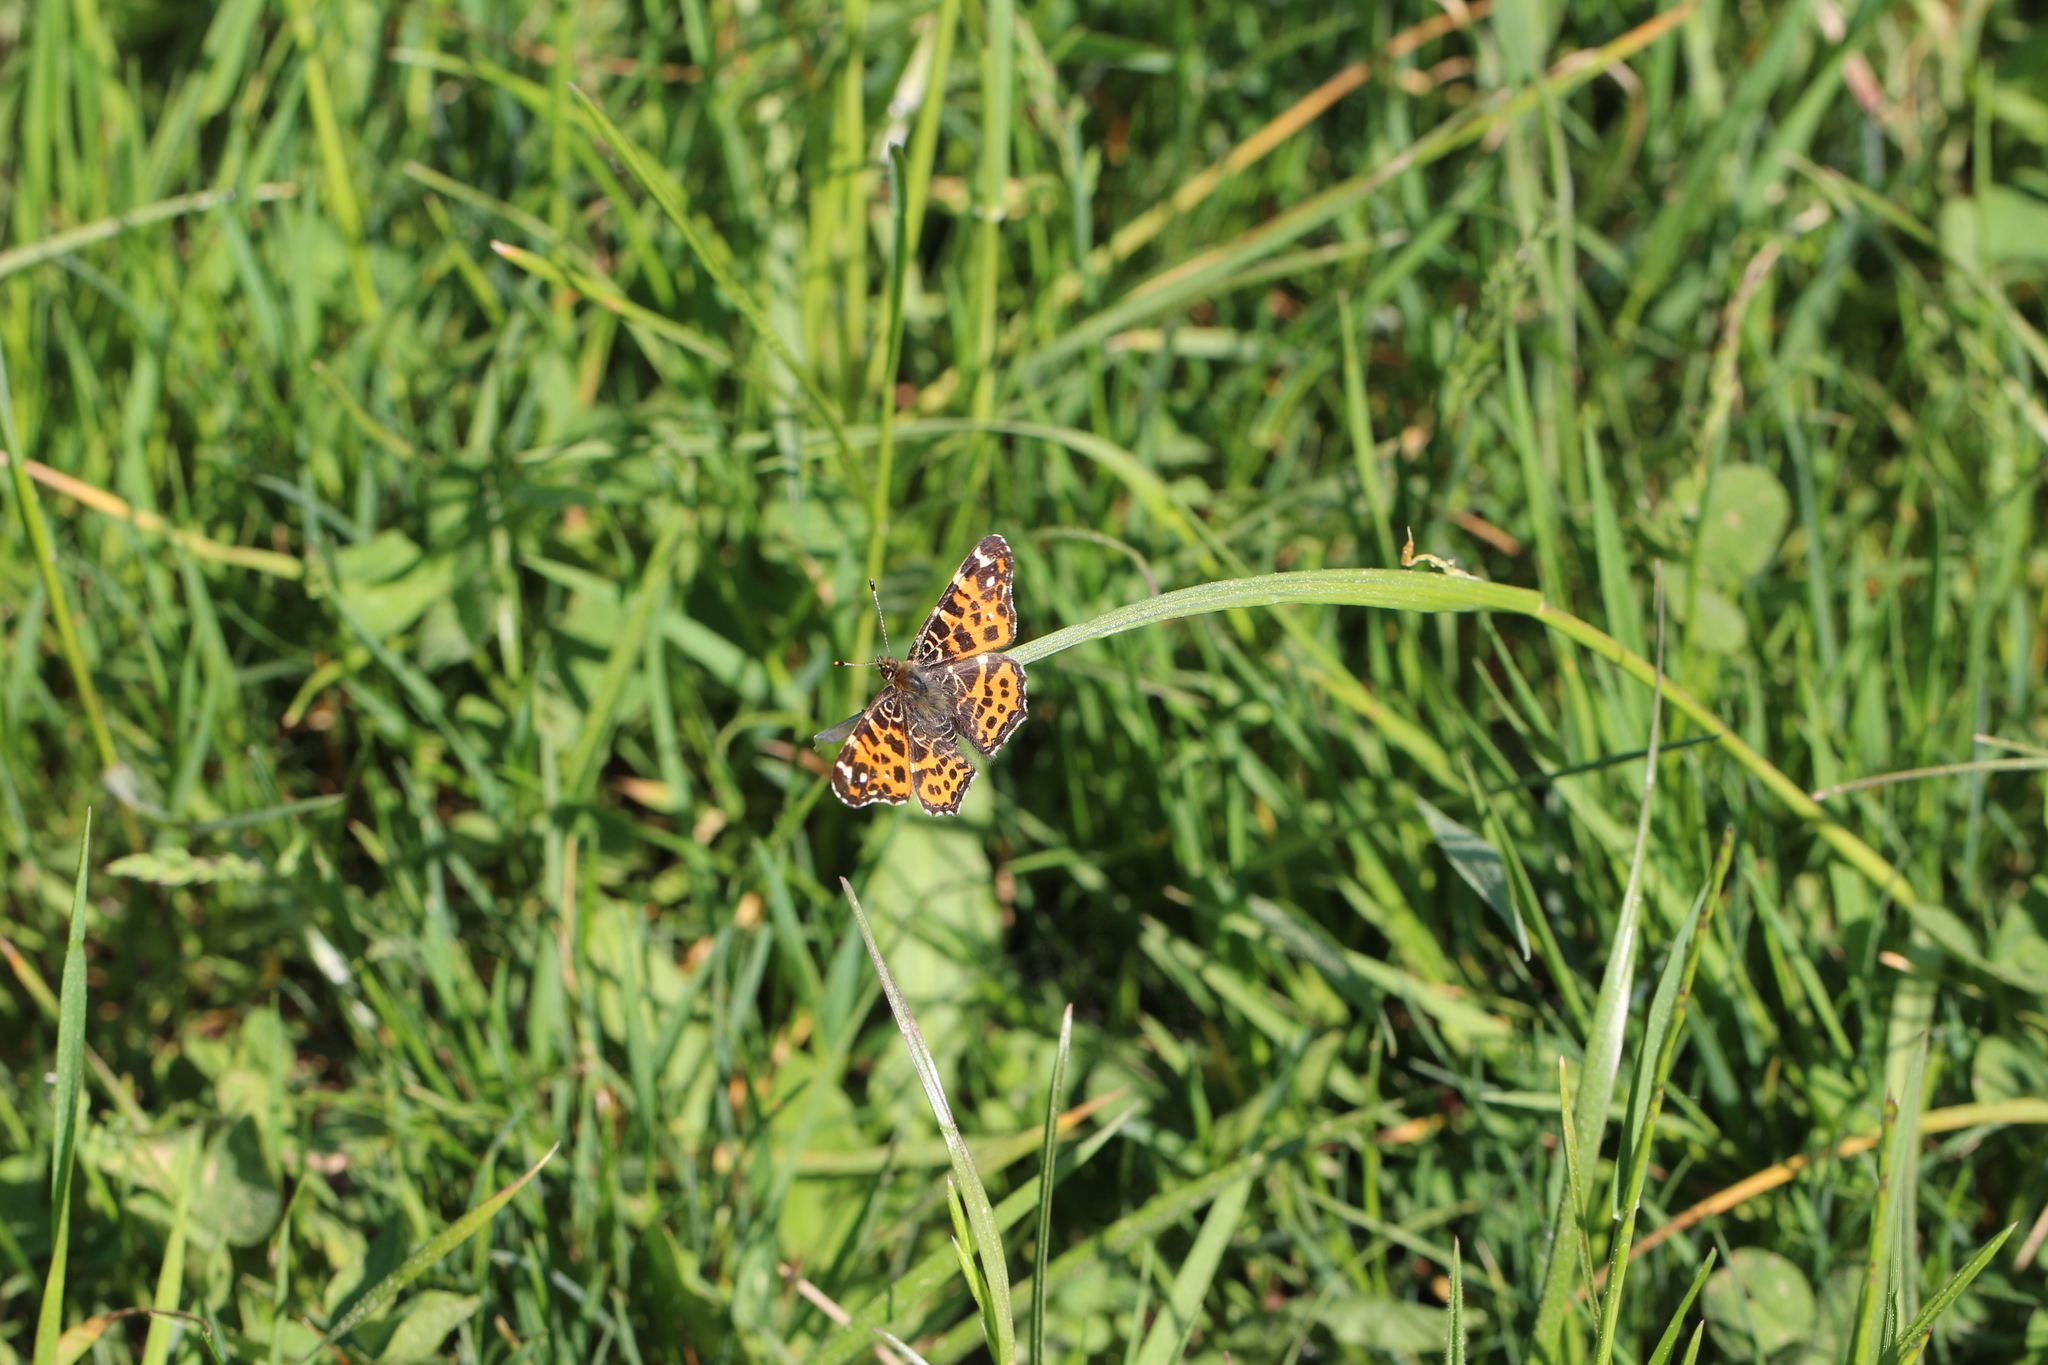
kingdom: Animalia
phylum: Arthropoda
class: Insecta
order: Lepidoptera
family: Nymphalidae
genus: Araschnia
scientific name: Araschnia levana
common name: Map butterfly
